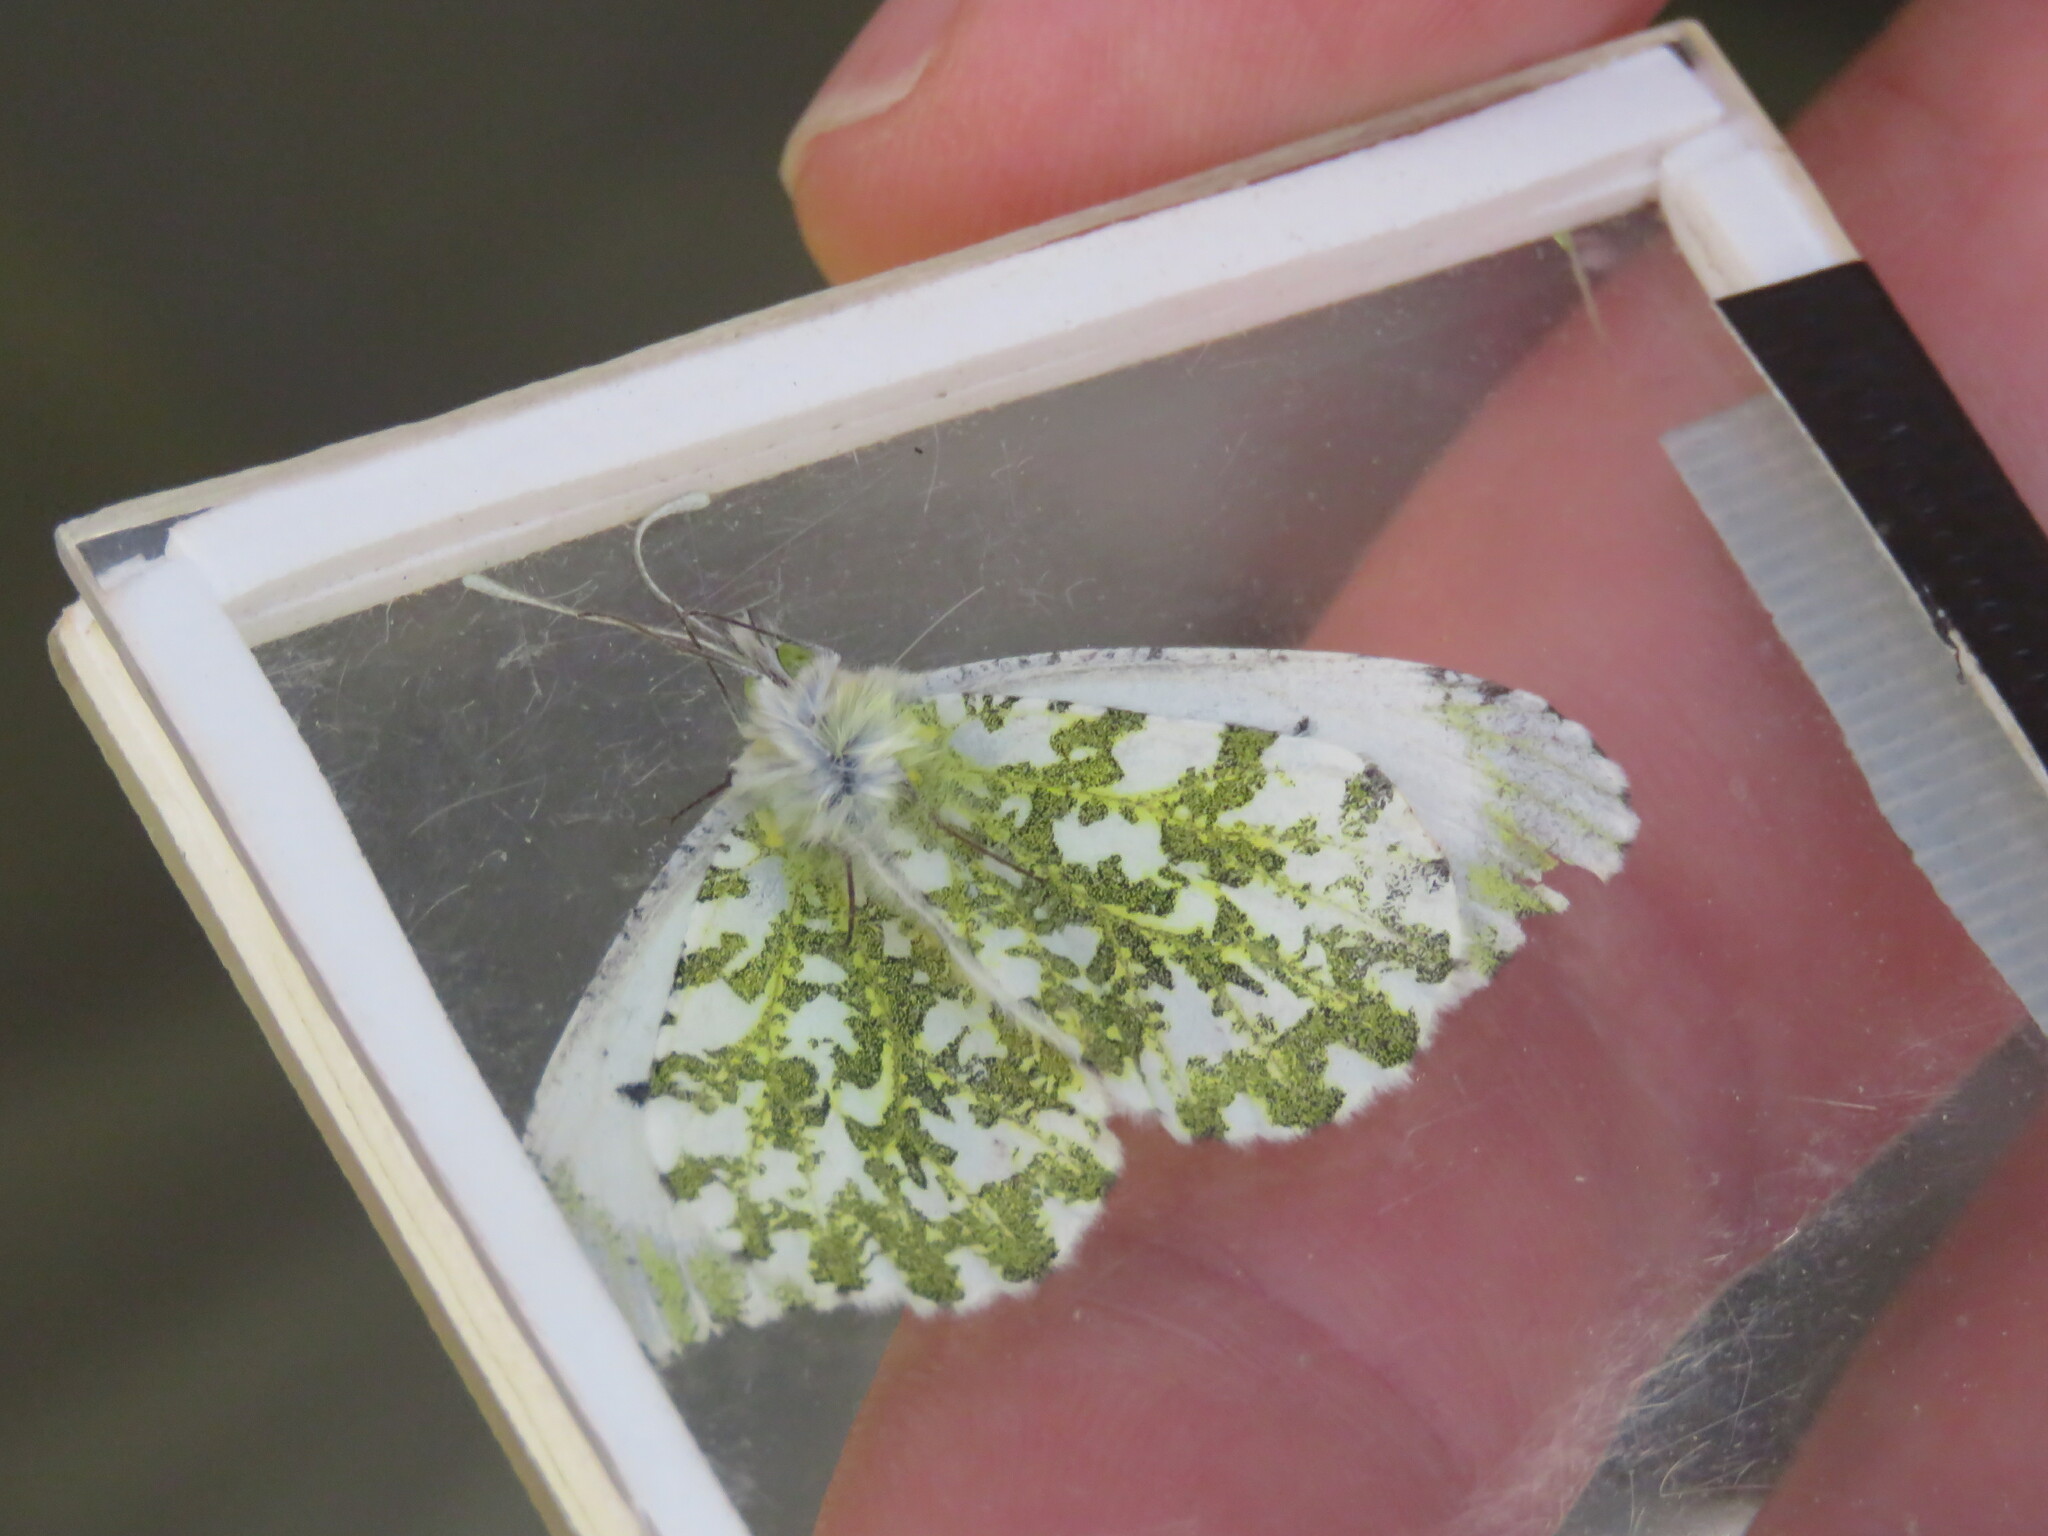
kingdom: Animalia
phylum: Arthropoda
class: Insecta
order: Lepidoptera
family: Pieridae
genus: Anthocharis
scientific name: Anthocharis cardamines
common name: Orange-tip
